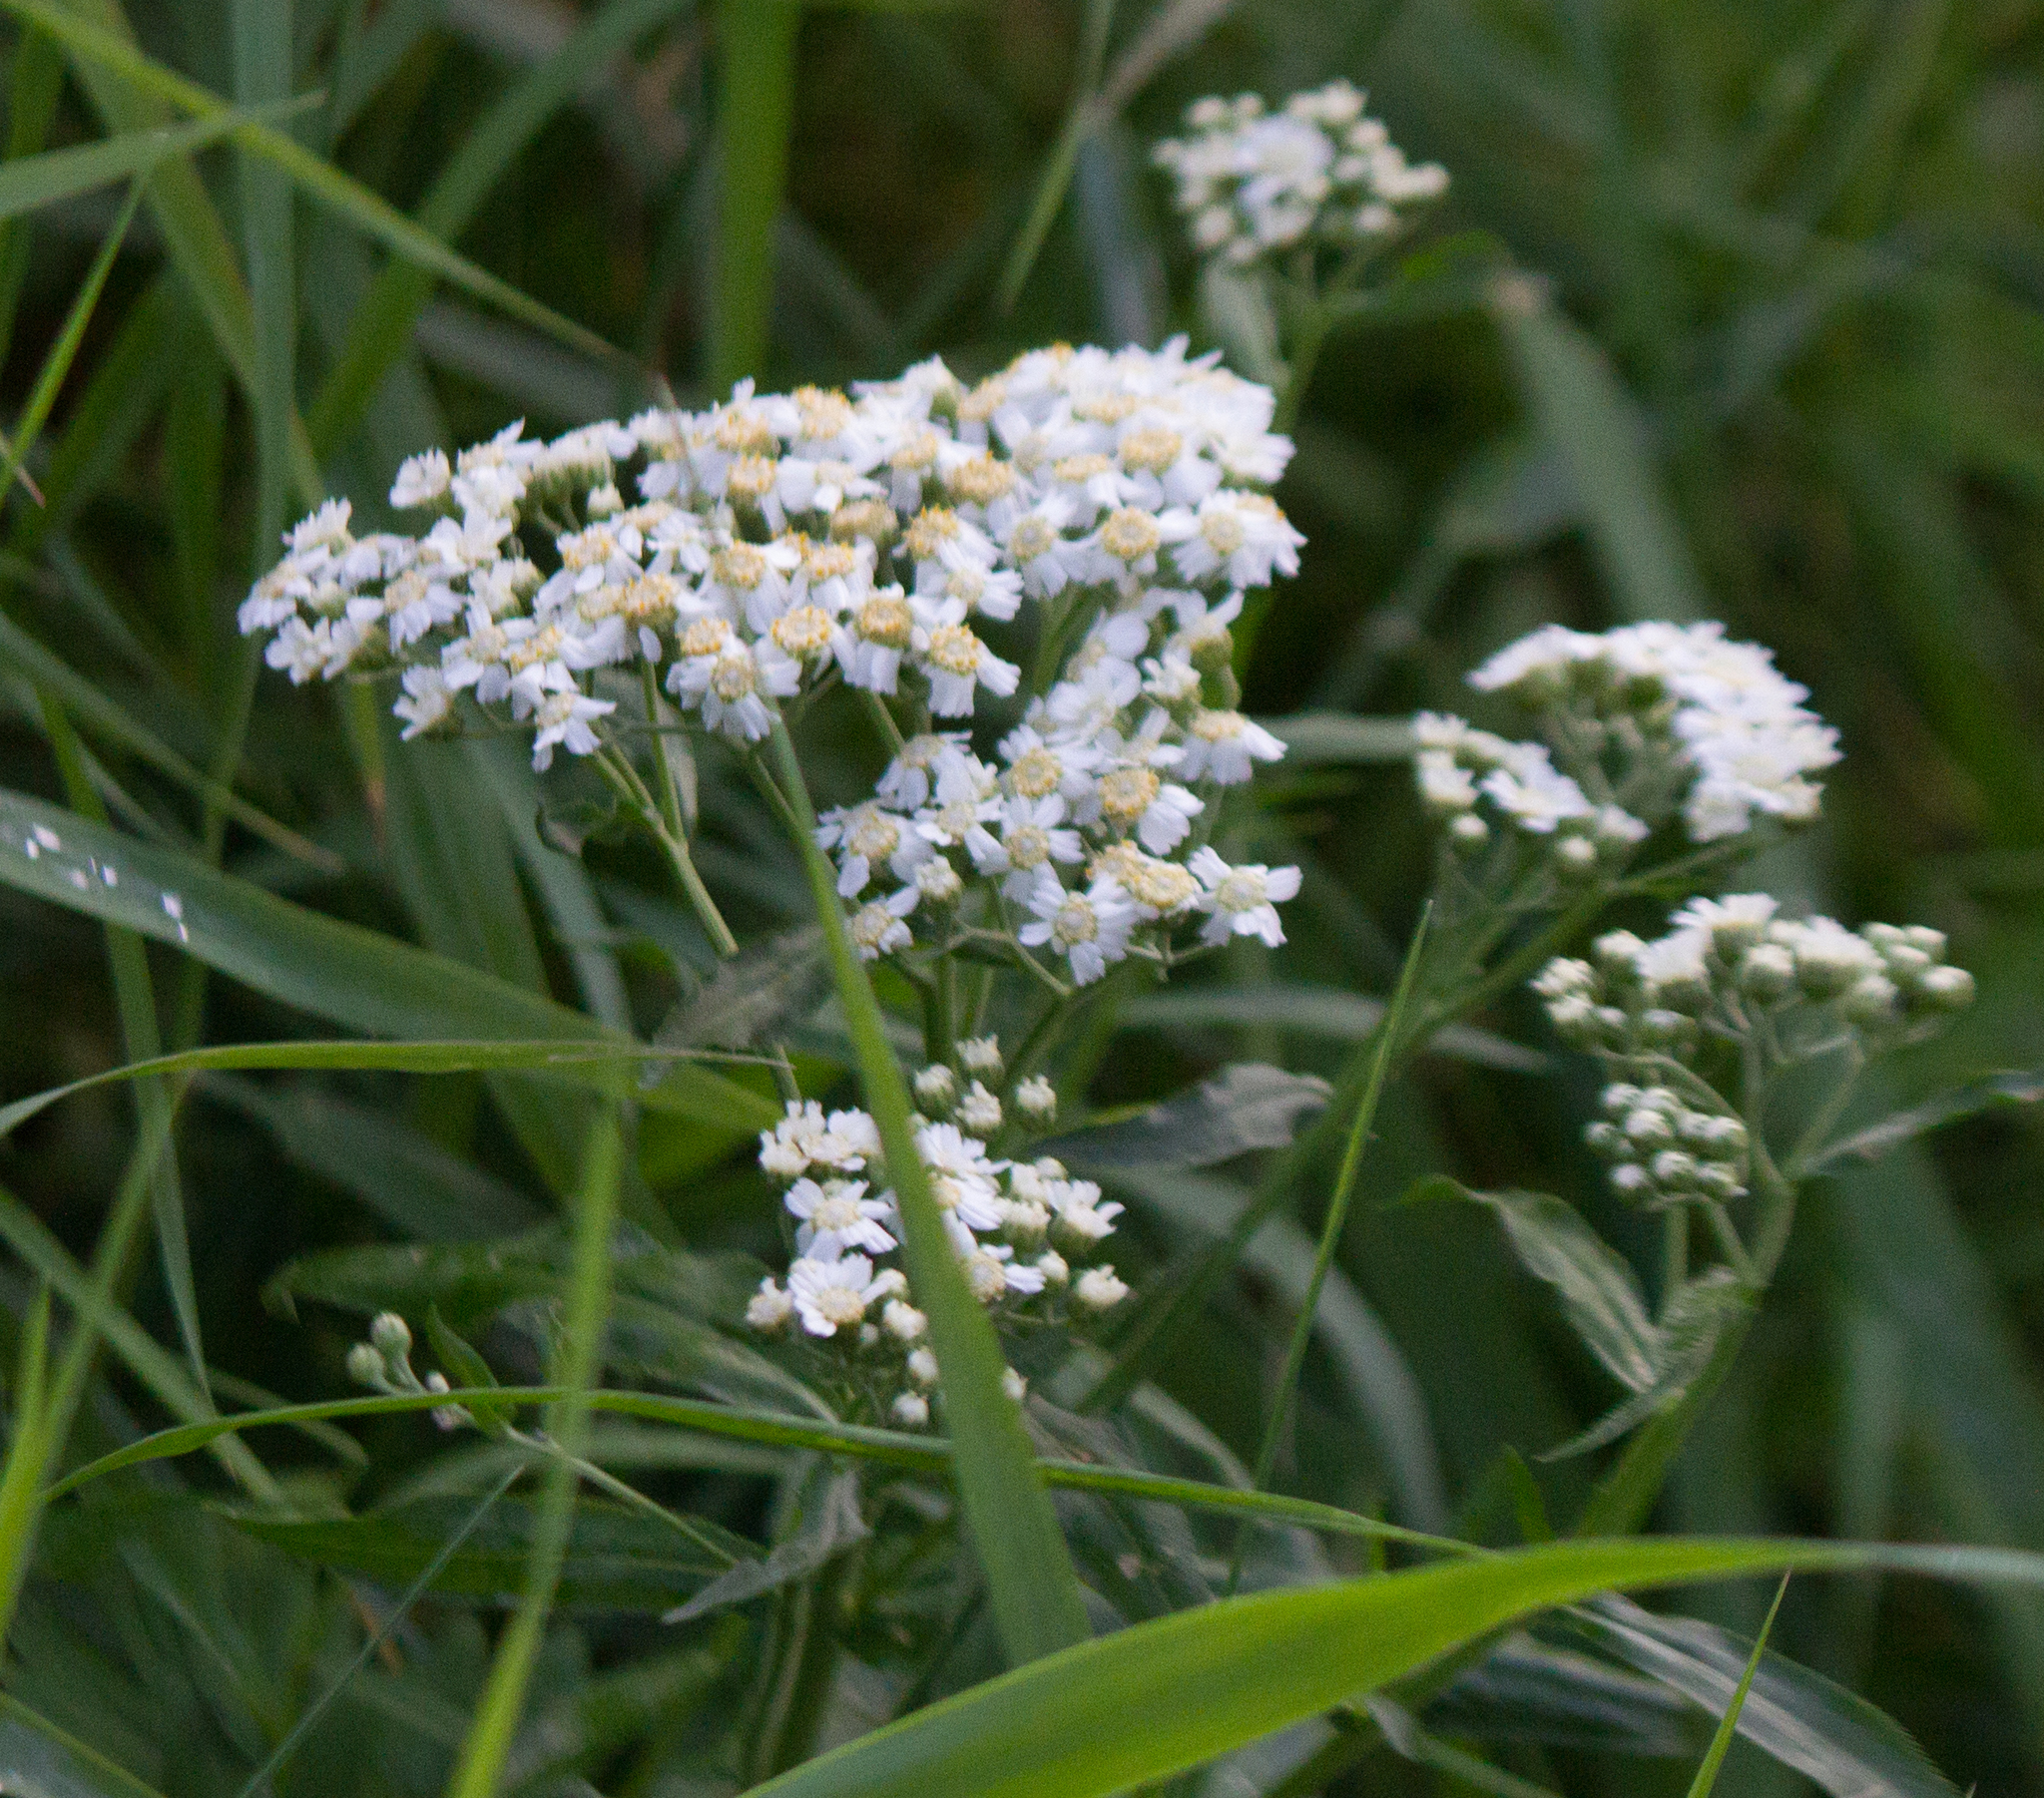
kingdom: Plantae
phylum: Tracheophyta
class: Magnoliopsida
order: Asterales
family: Asteraceae
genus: Achillea
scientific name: Achillea salicifolia
